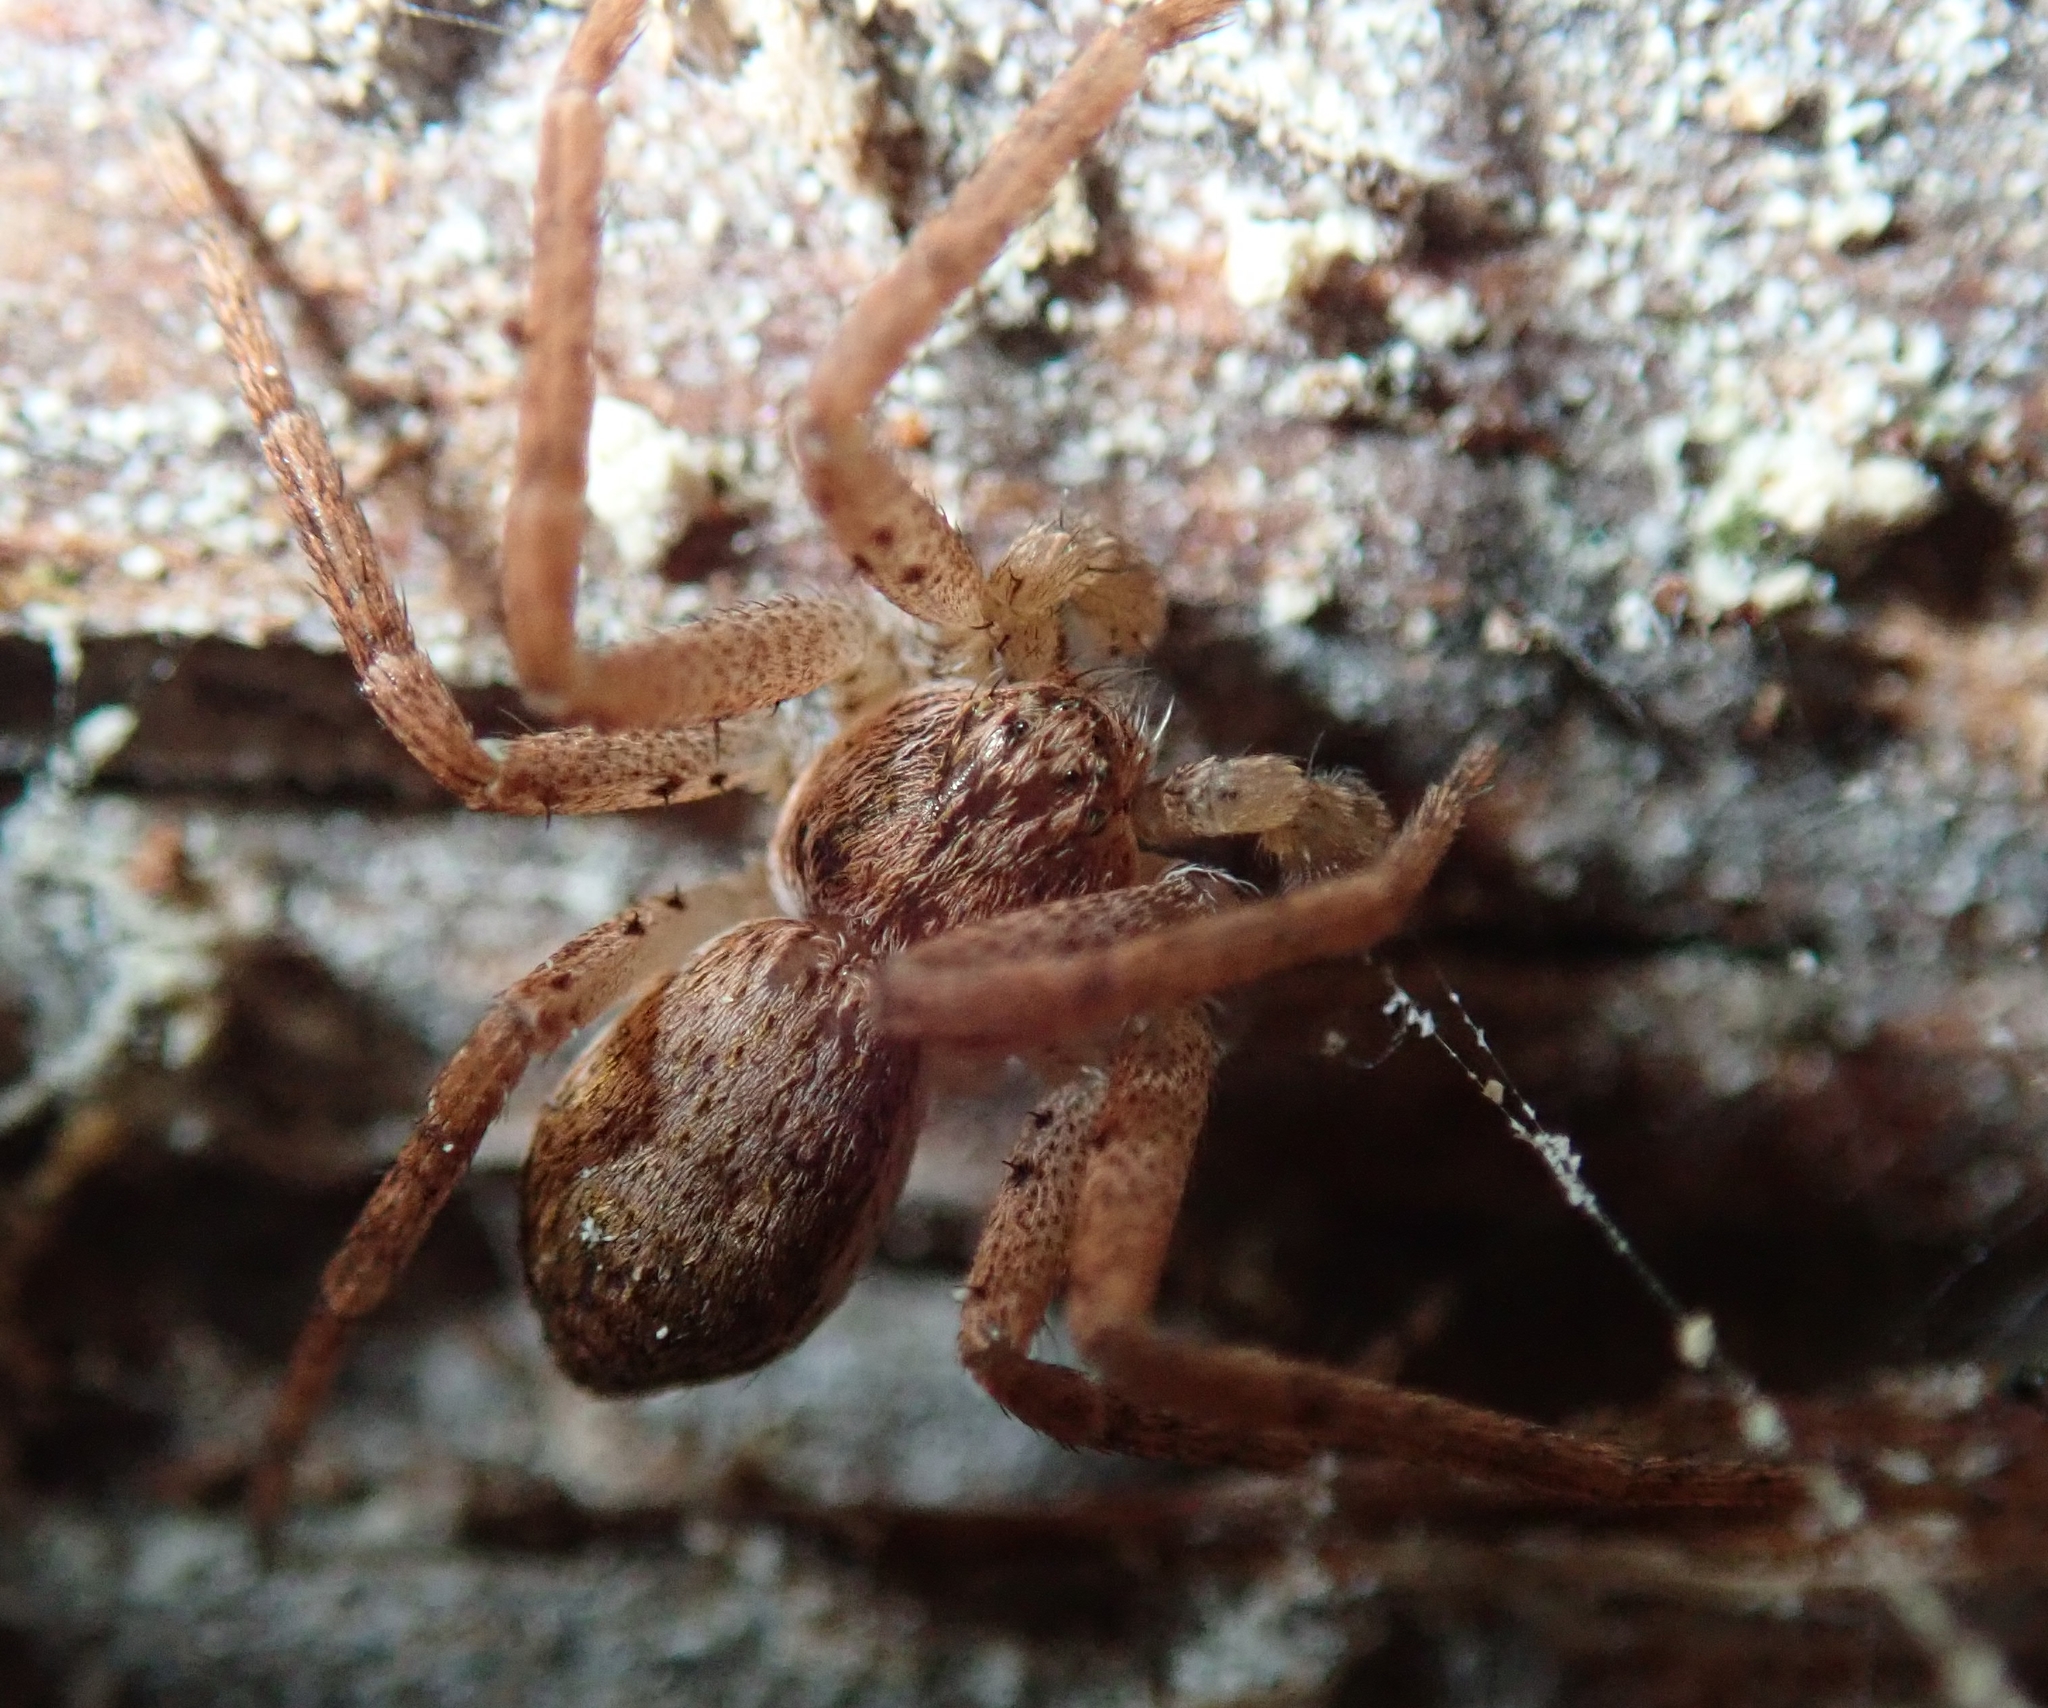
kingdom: Animalia
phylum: Arthropoda
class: Arachnida
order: Araneae
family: Philodromidae
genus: Philodromus
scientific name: Philodromus dispar
